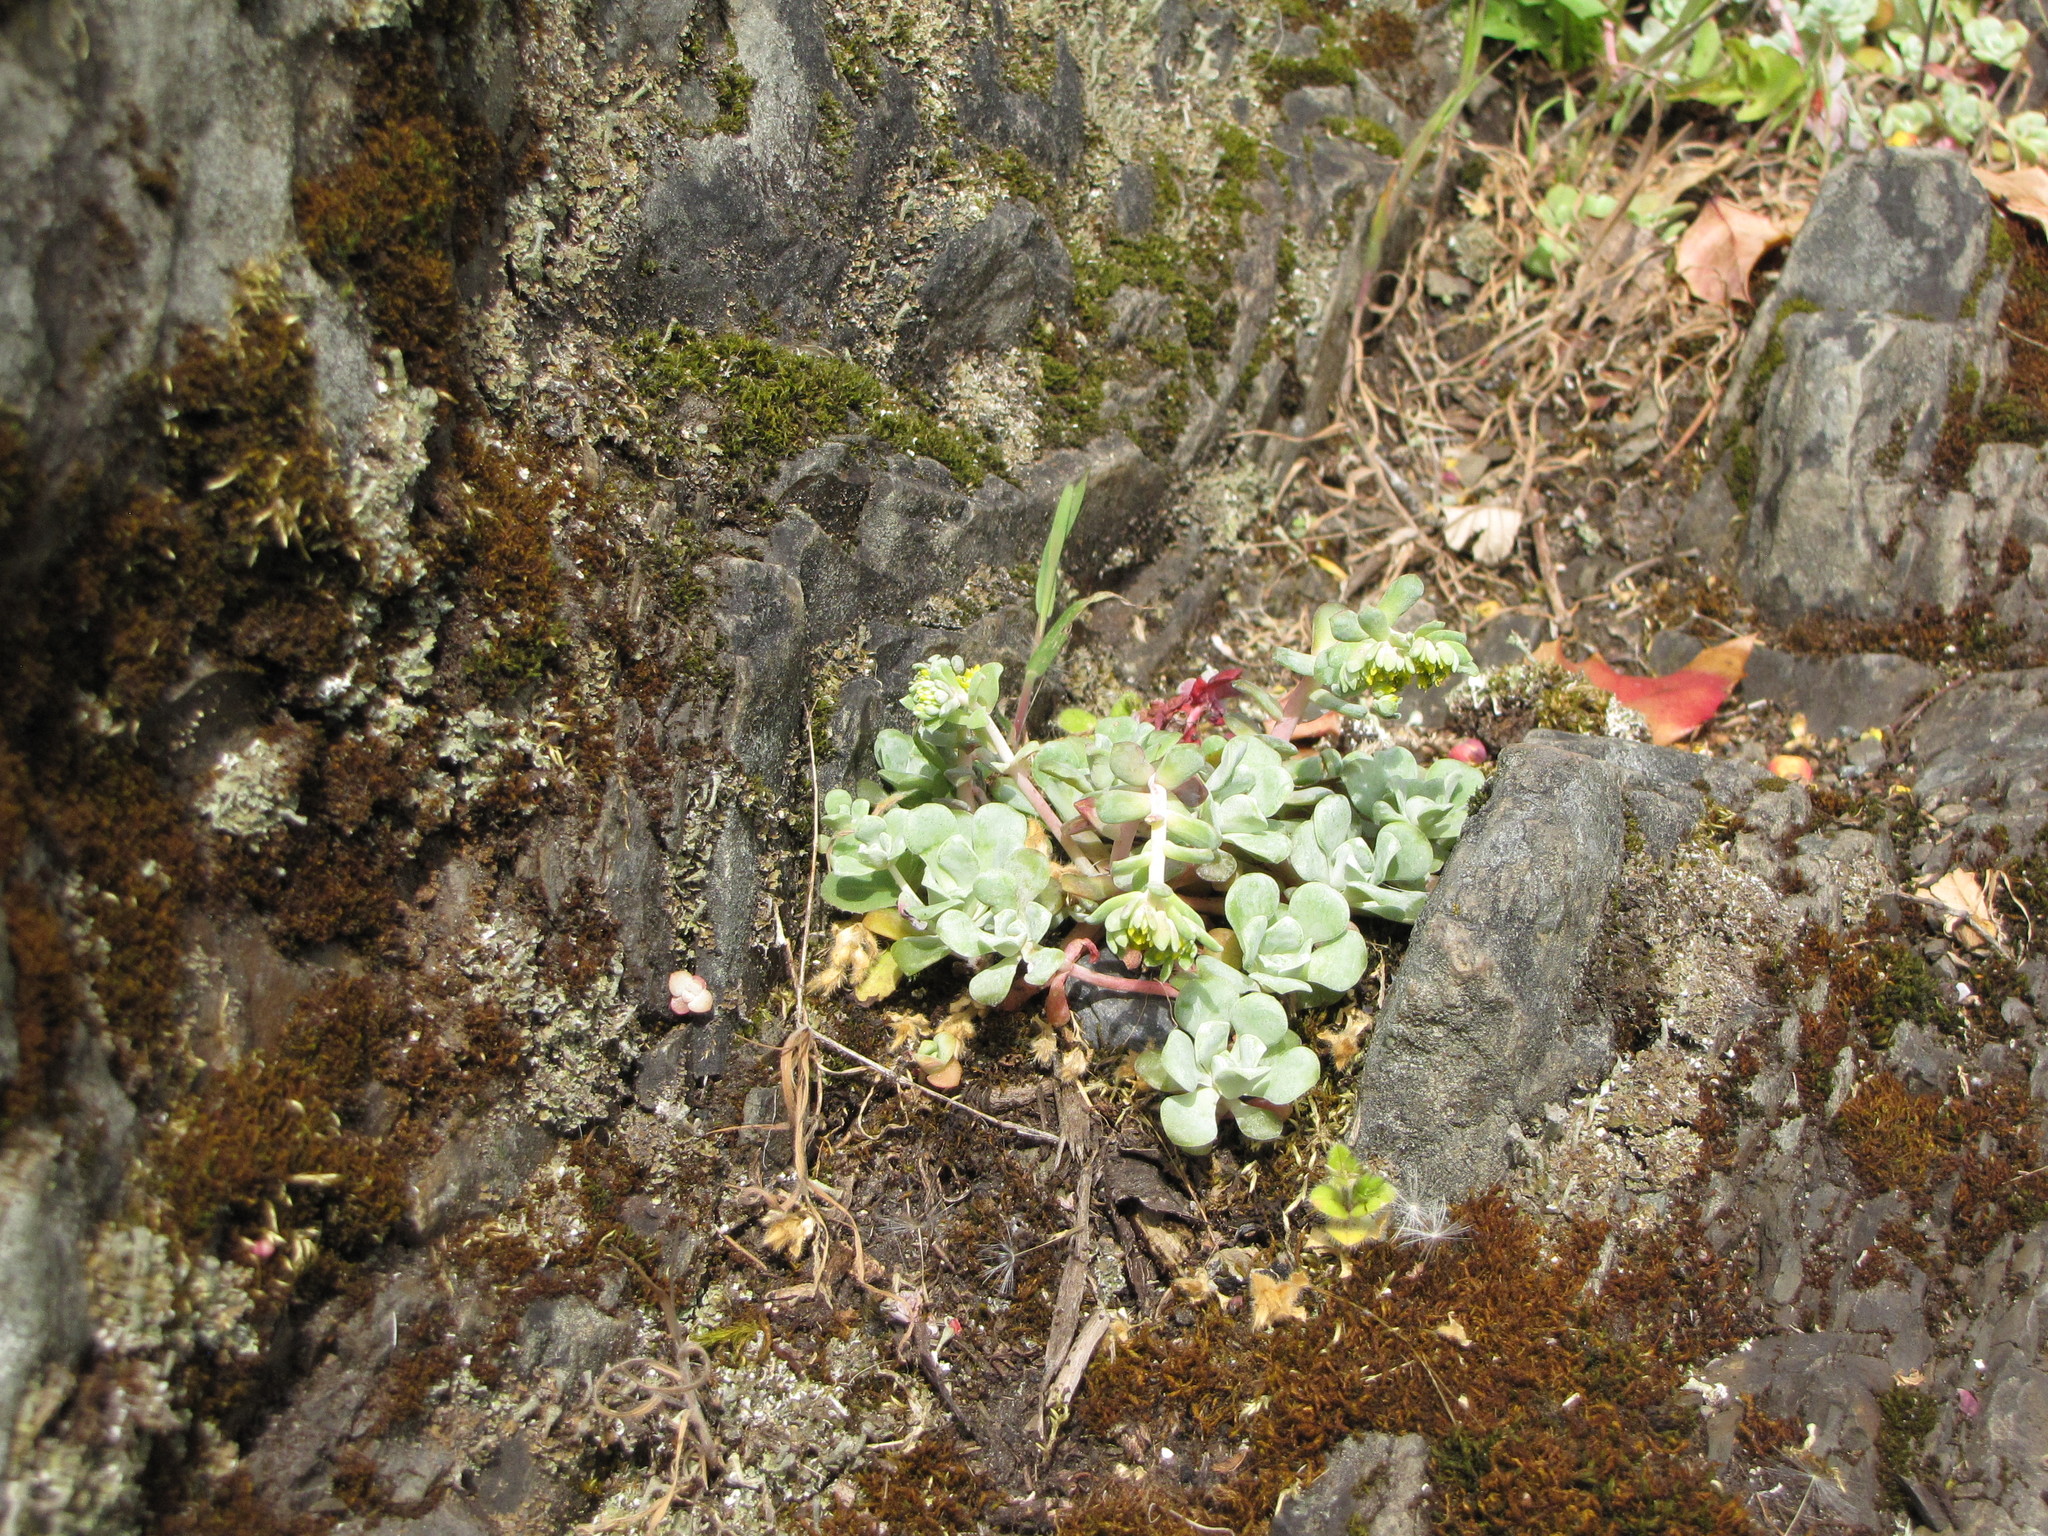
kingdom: Plantae
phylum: Tracheophyta
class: Magnoliopsida
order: Saxifragales
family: Crassulaceae
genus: Sedum
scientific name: Sedum spathulifolium
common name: Colorado stonecrop
